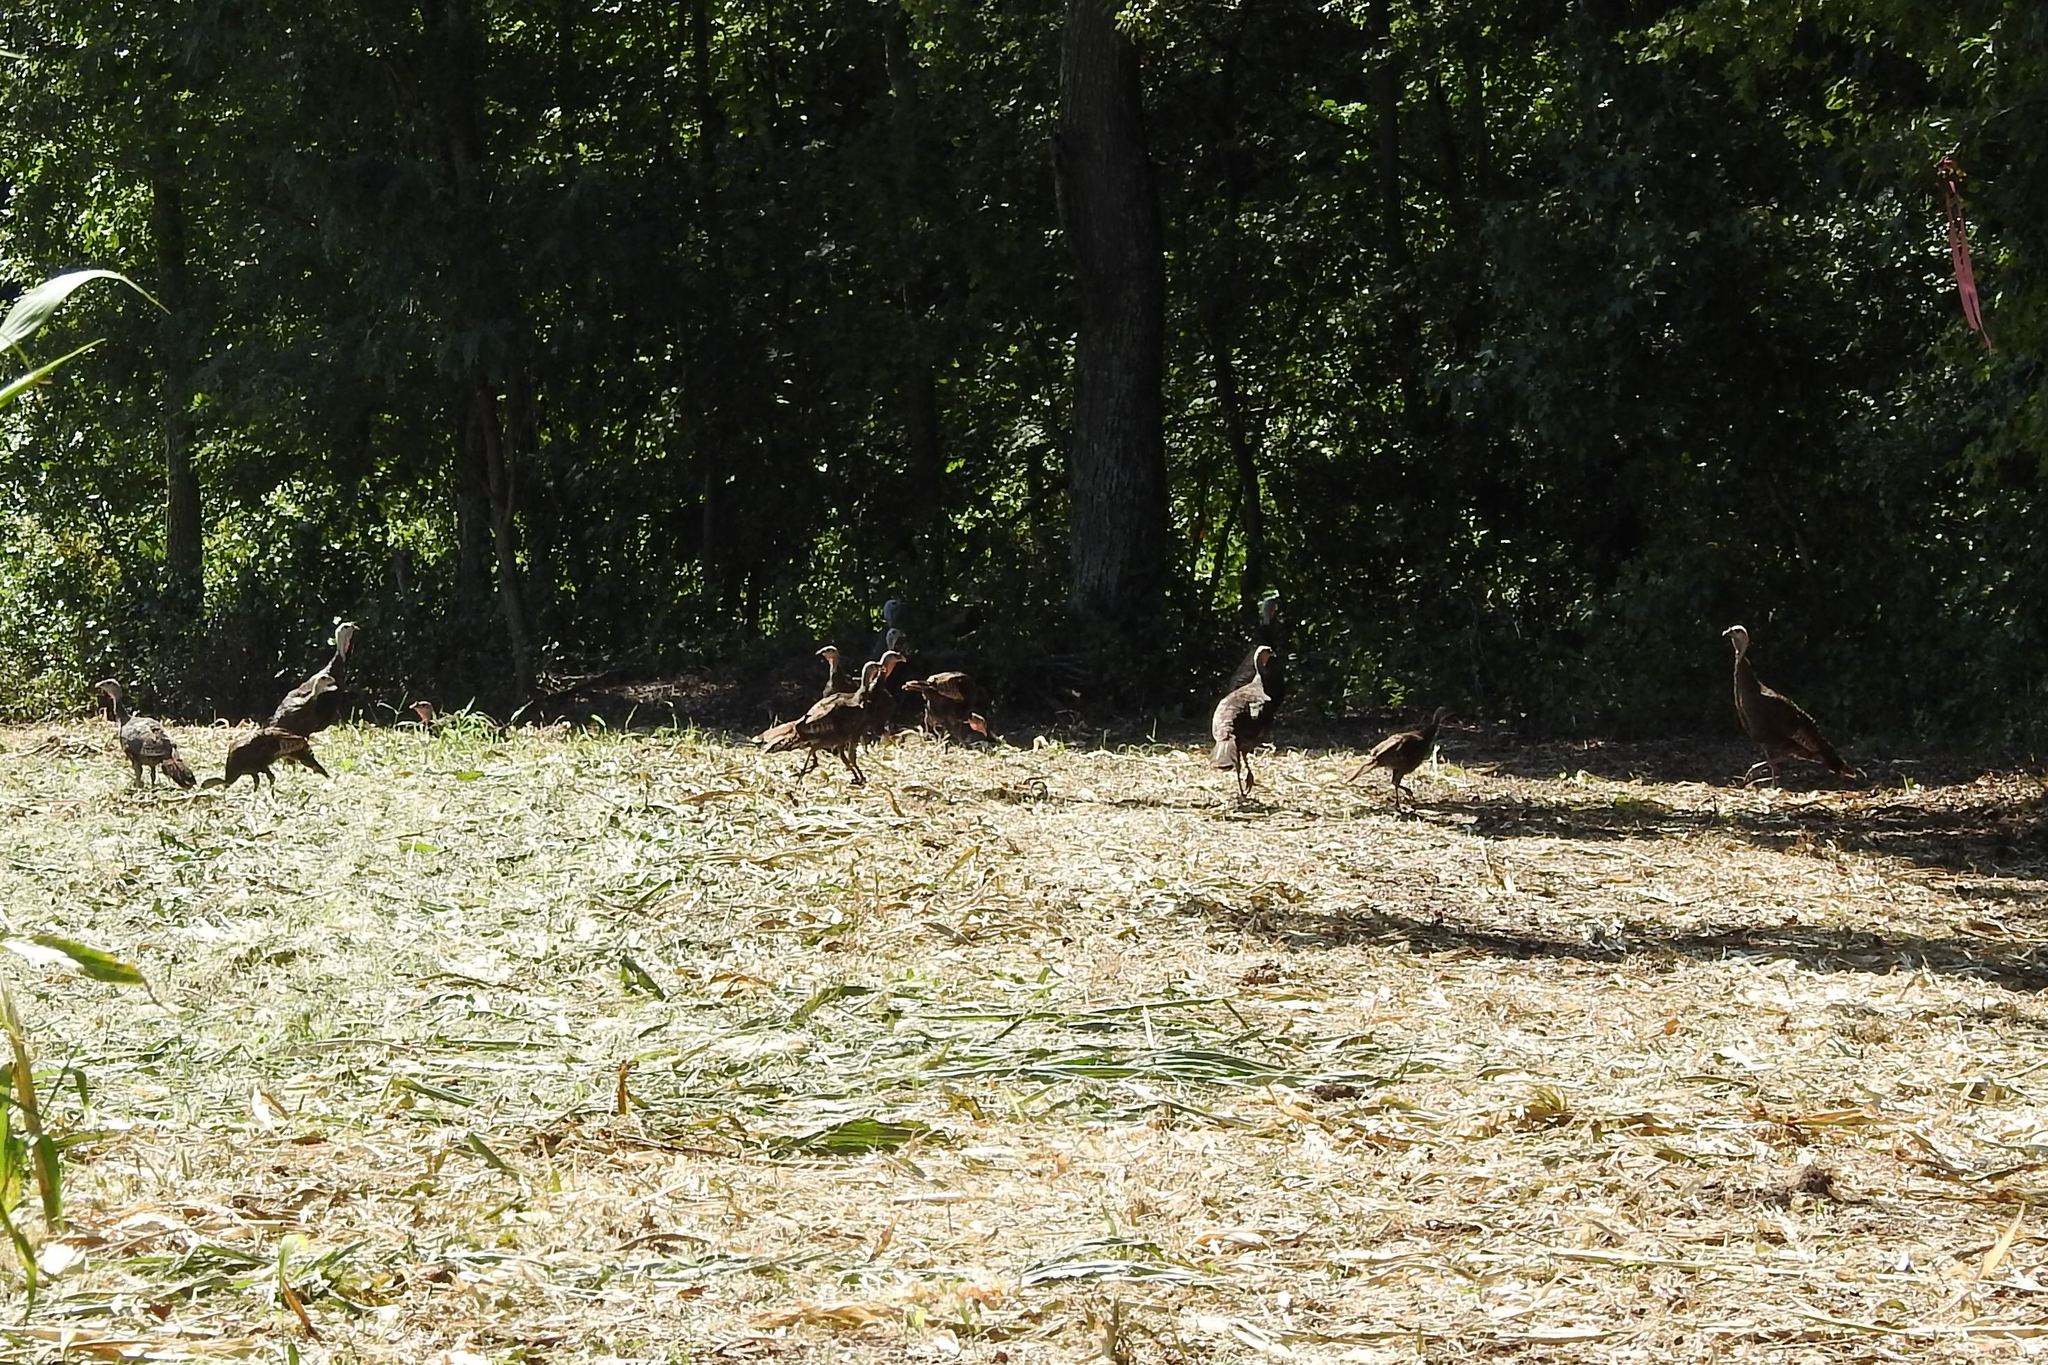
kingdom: Animalia
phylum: Chordata
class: Aves
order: Galliformes
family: Phasianidae
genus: Meleagris
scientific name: Meleagris gallopavo
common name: Wild turkey
